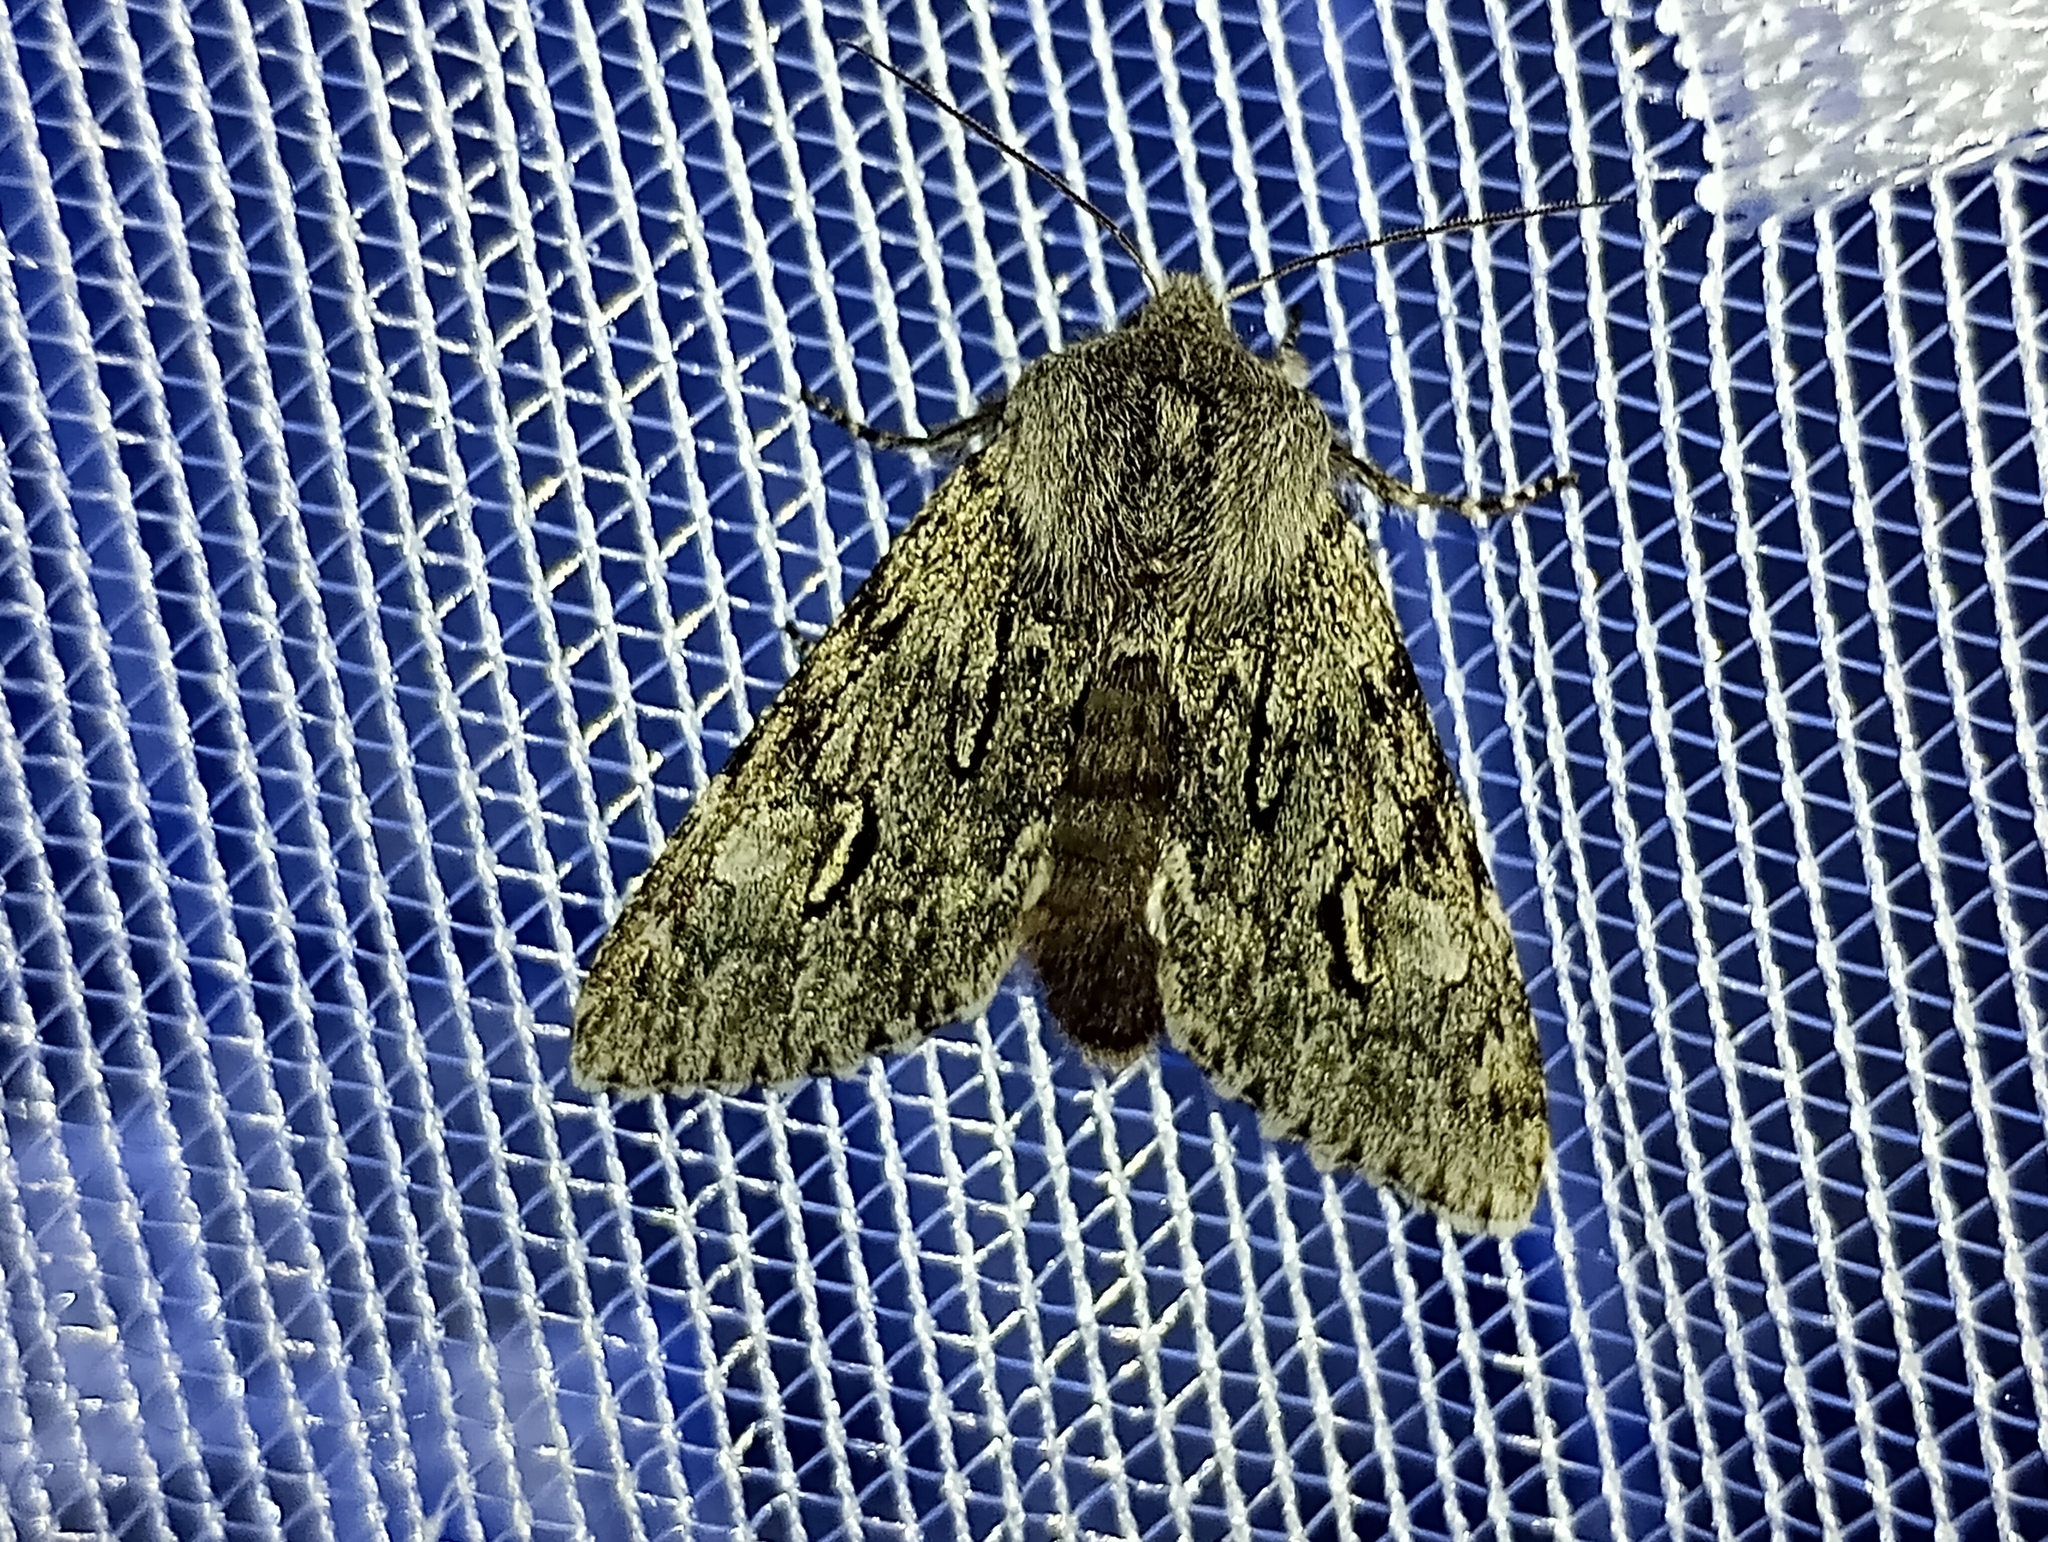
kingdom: Animalia
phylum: Arthropoda
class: Insecta
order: Lepidoptera
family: Noctuidae
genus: Brachionycha
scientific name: Brachionycha nubeculosa
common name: Rannoch sprawler
